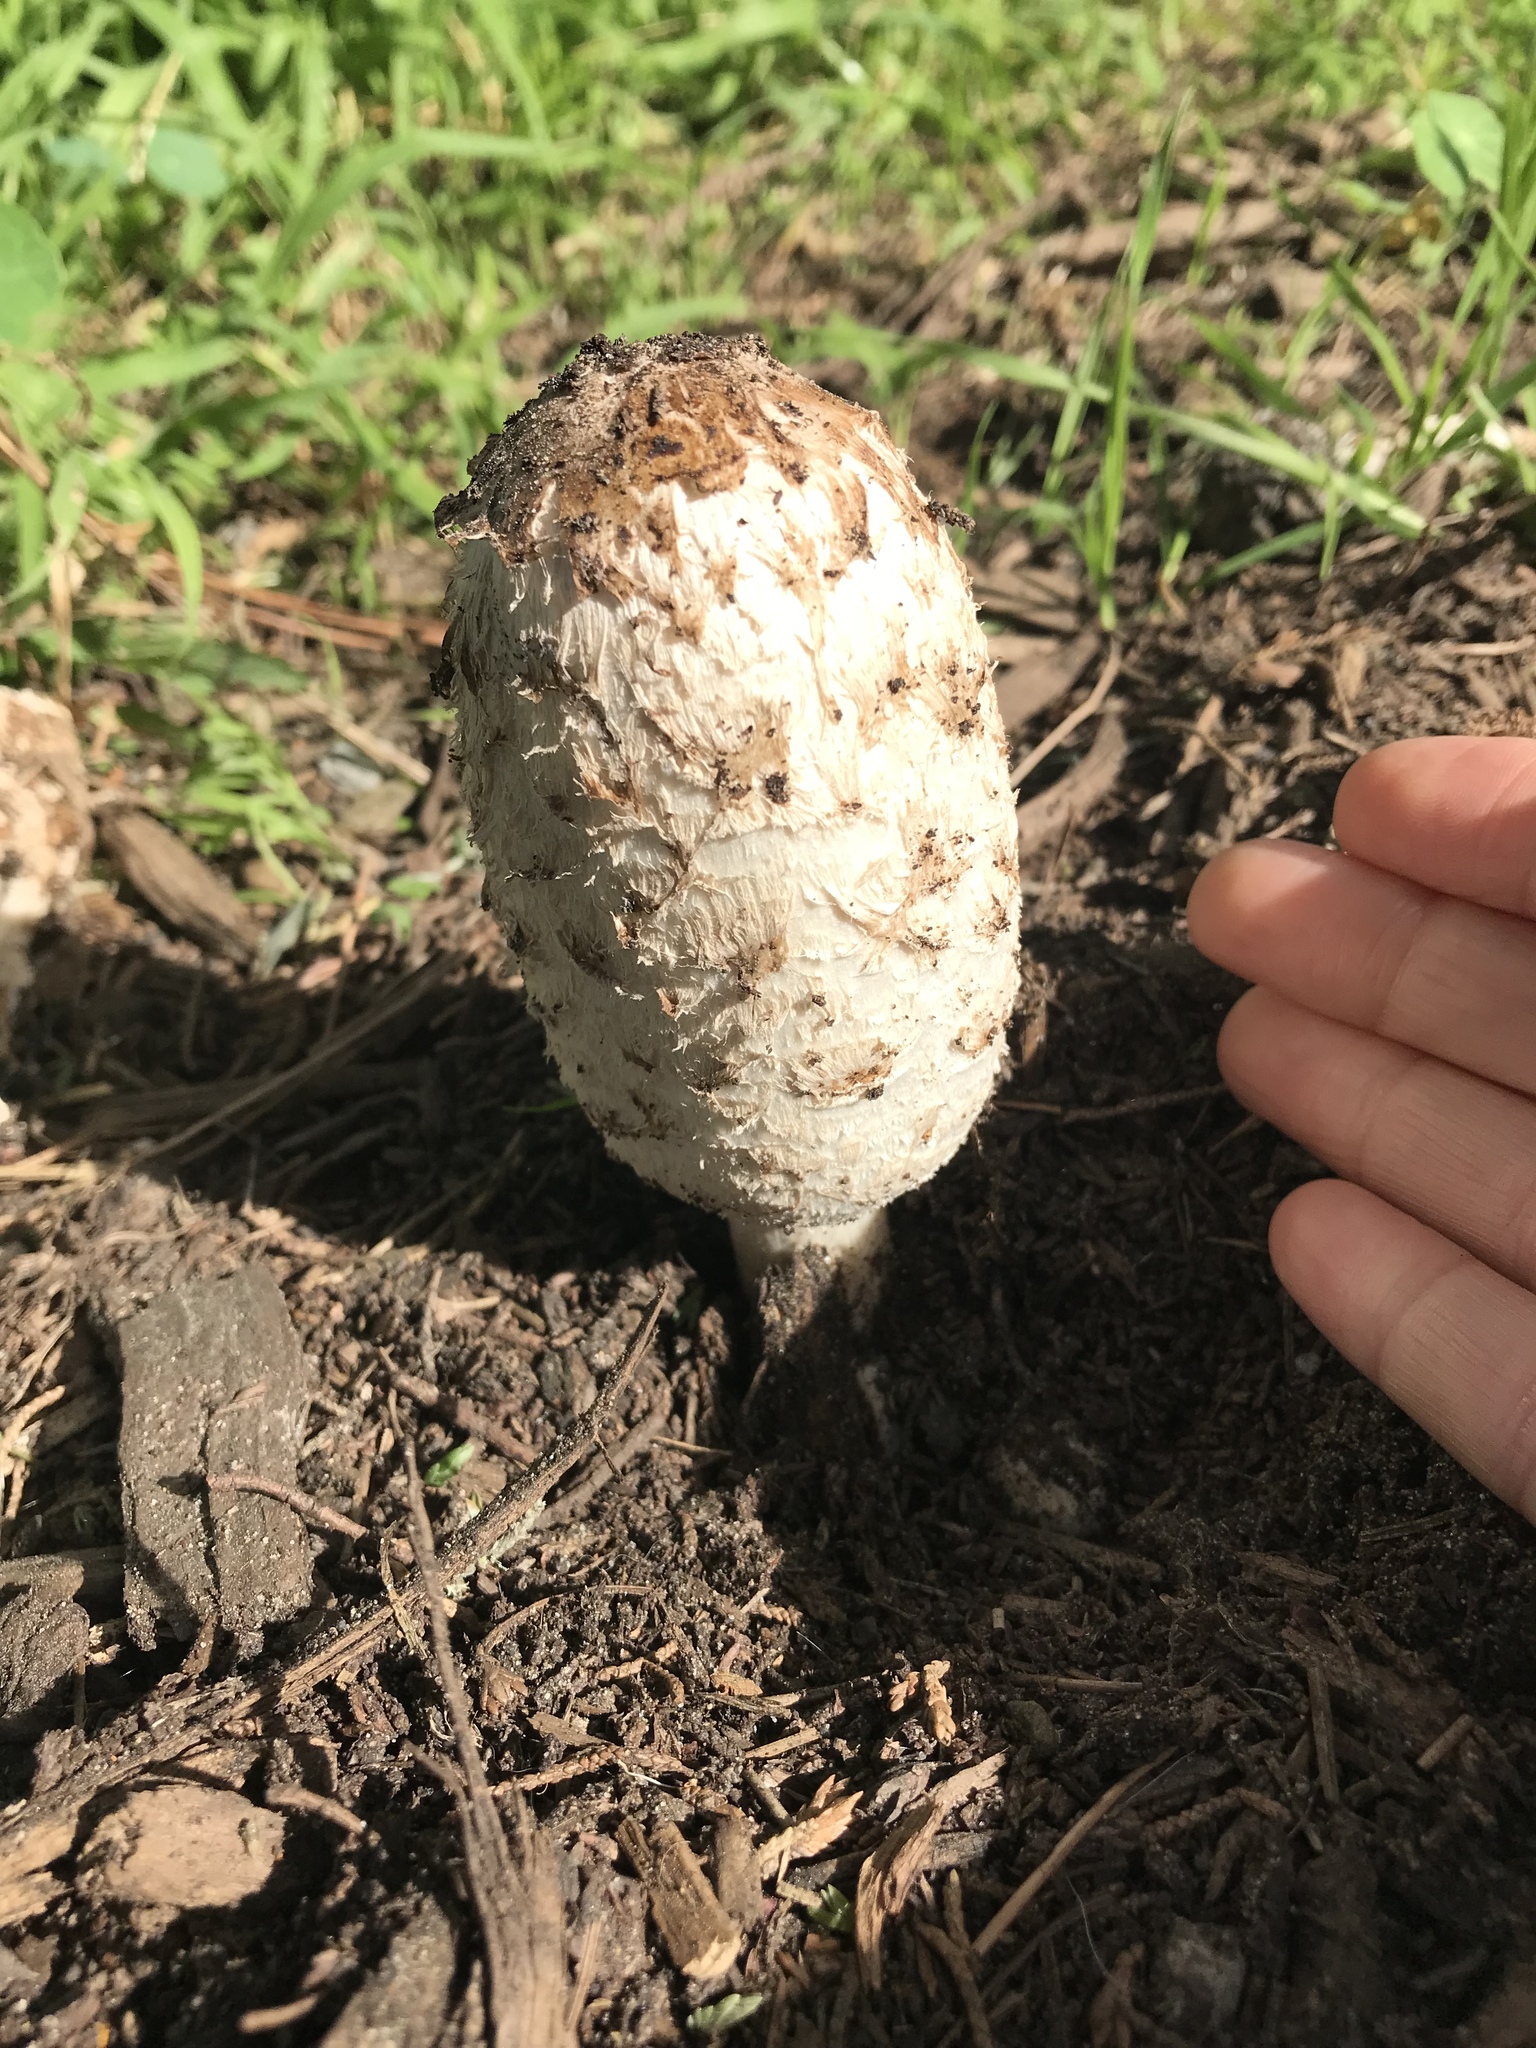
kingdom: Fungi
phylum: Basidiomycota
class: Agaricomycetes
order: Agaricales
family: Agaricaceae
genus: Coprinus
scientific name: Coprinus comatus
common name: Lawyer's wig
